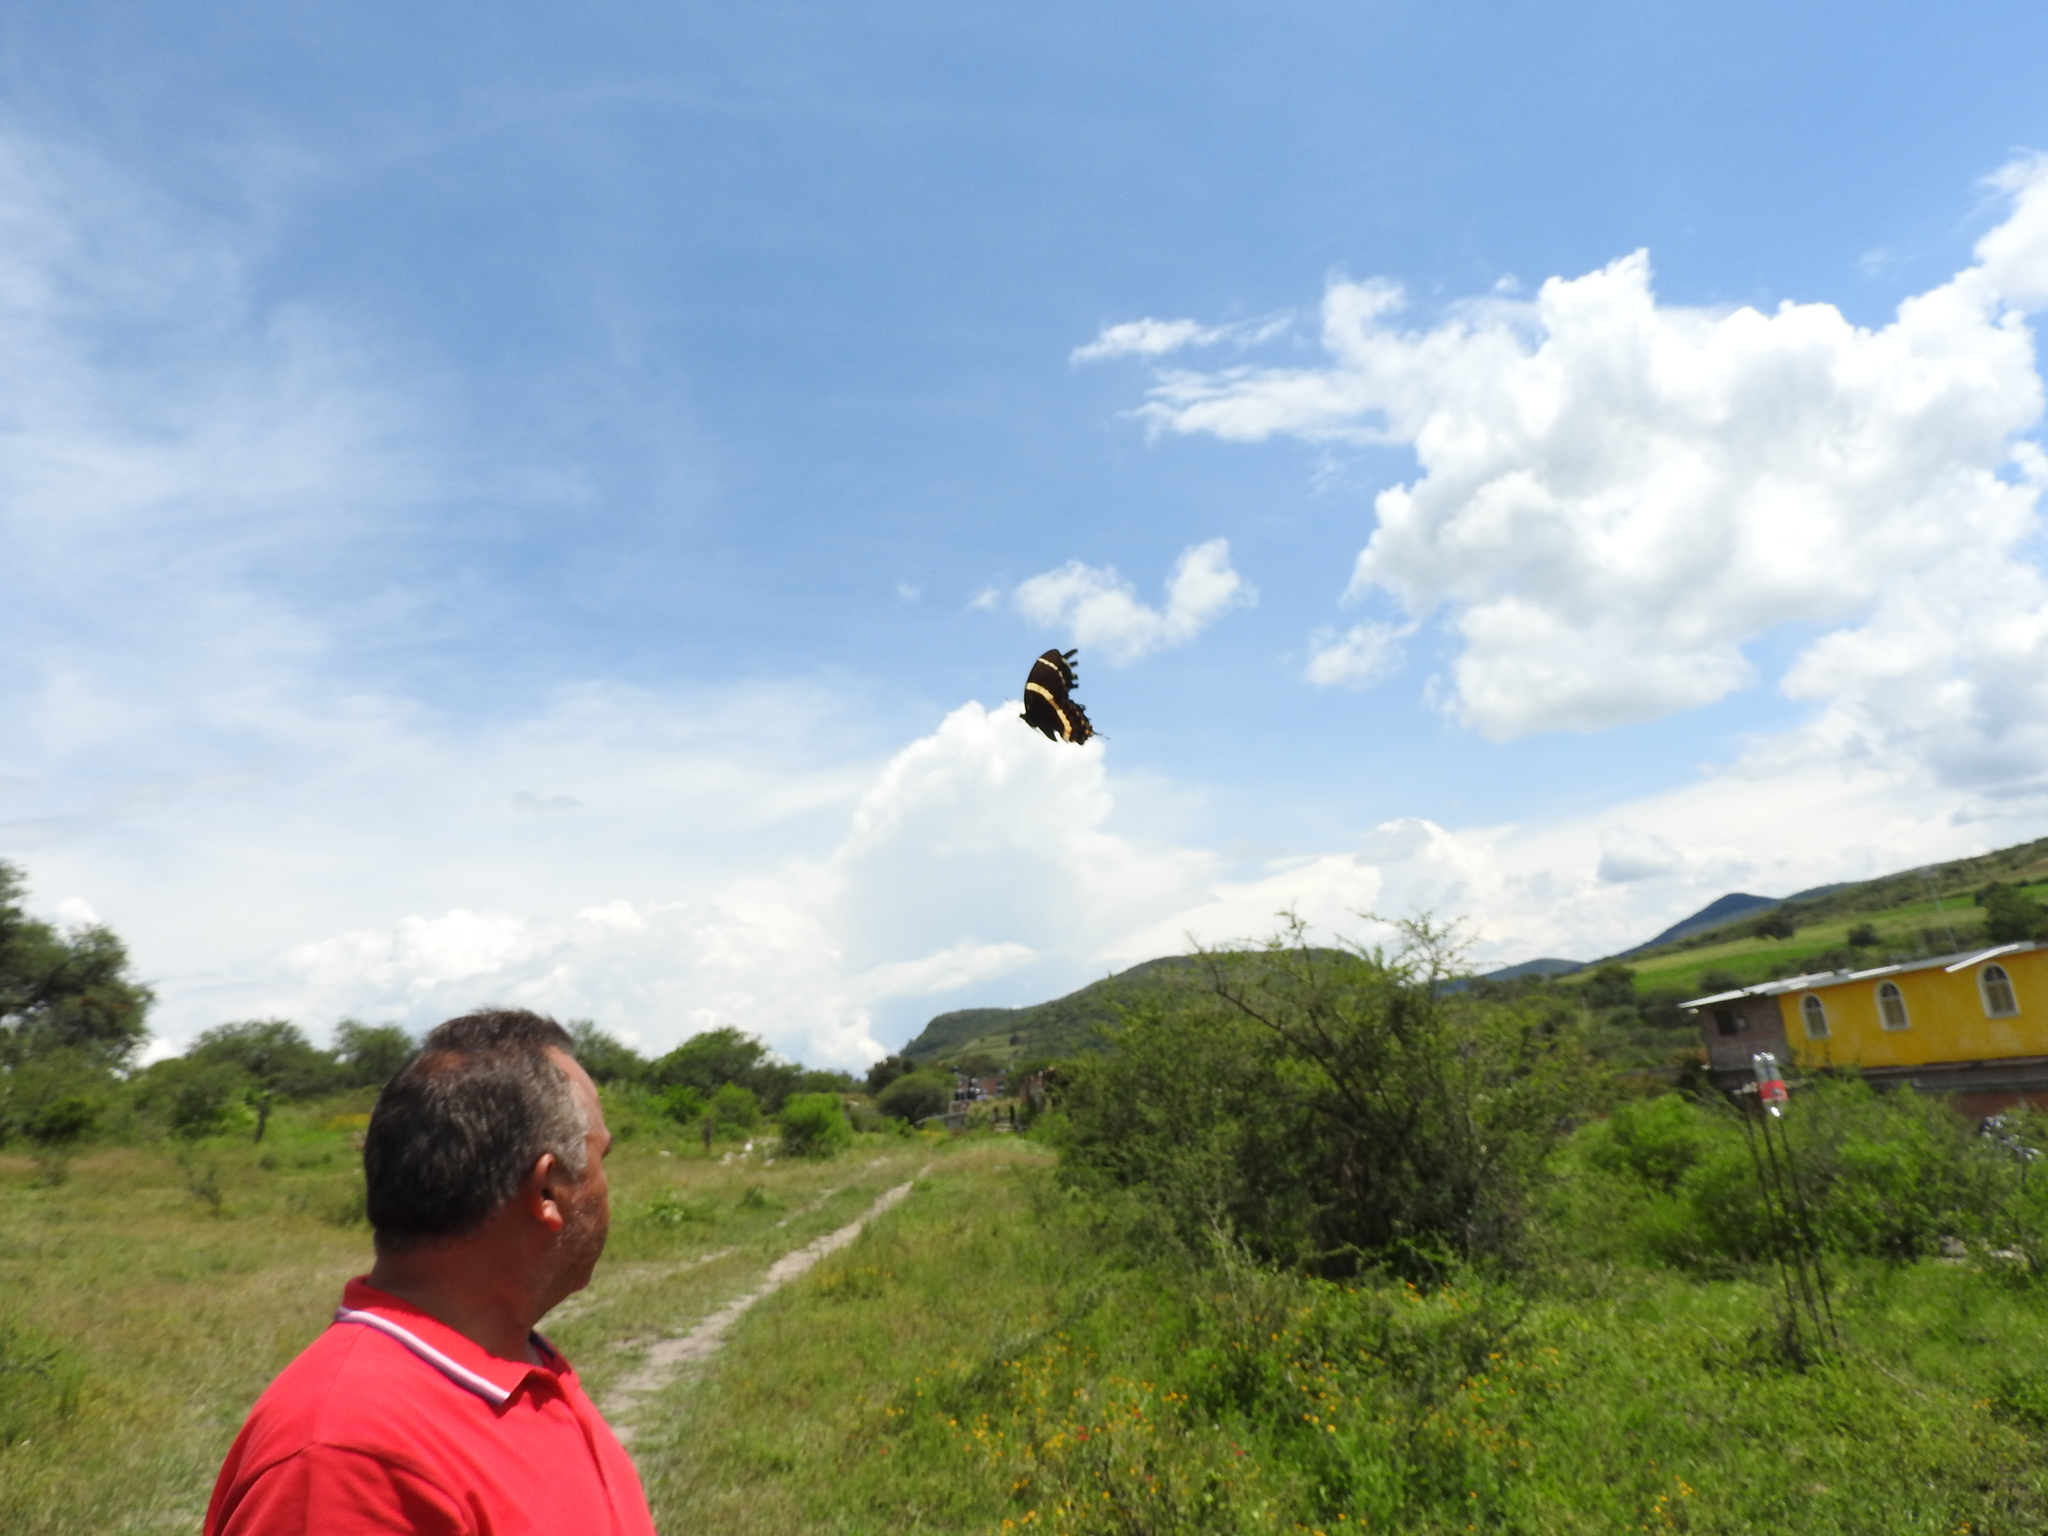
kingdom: Animalia
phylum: Arthropoda
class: Insecta
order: Lepidoptera
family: Papilionidae
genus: Papilio
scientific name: Papilio garamas
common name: Magnificent swallowtail
